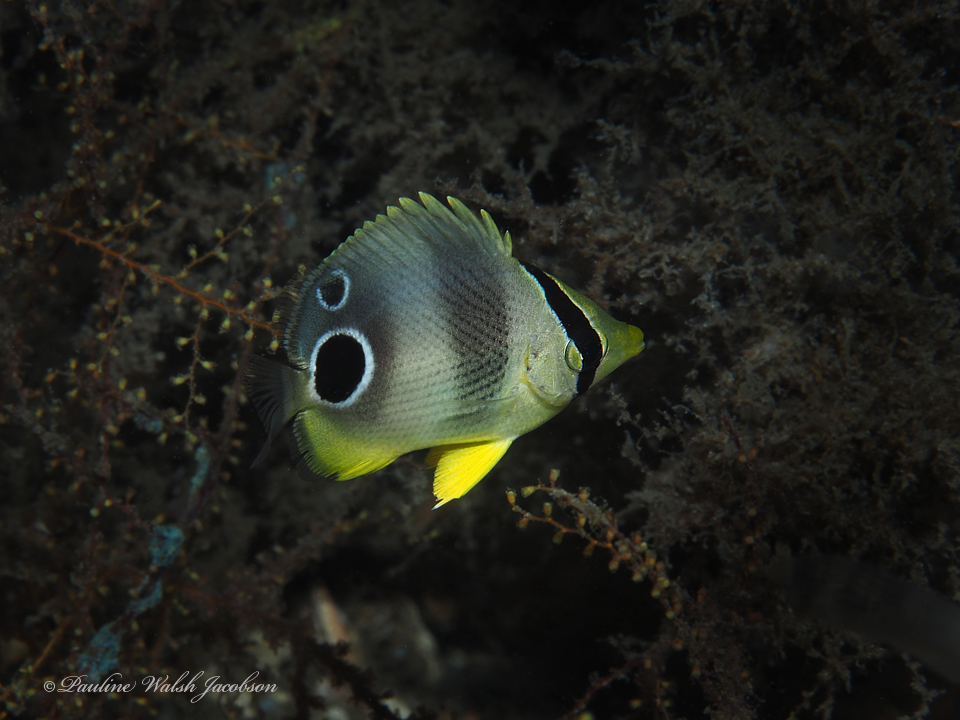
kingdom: Animalia
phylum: Chordata
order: Perciformes
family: Chaetodontidae
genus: Chaetodon
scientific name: Chaetodon capistratus
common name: Kete
